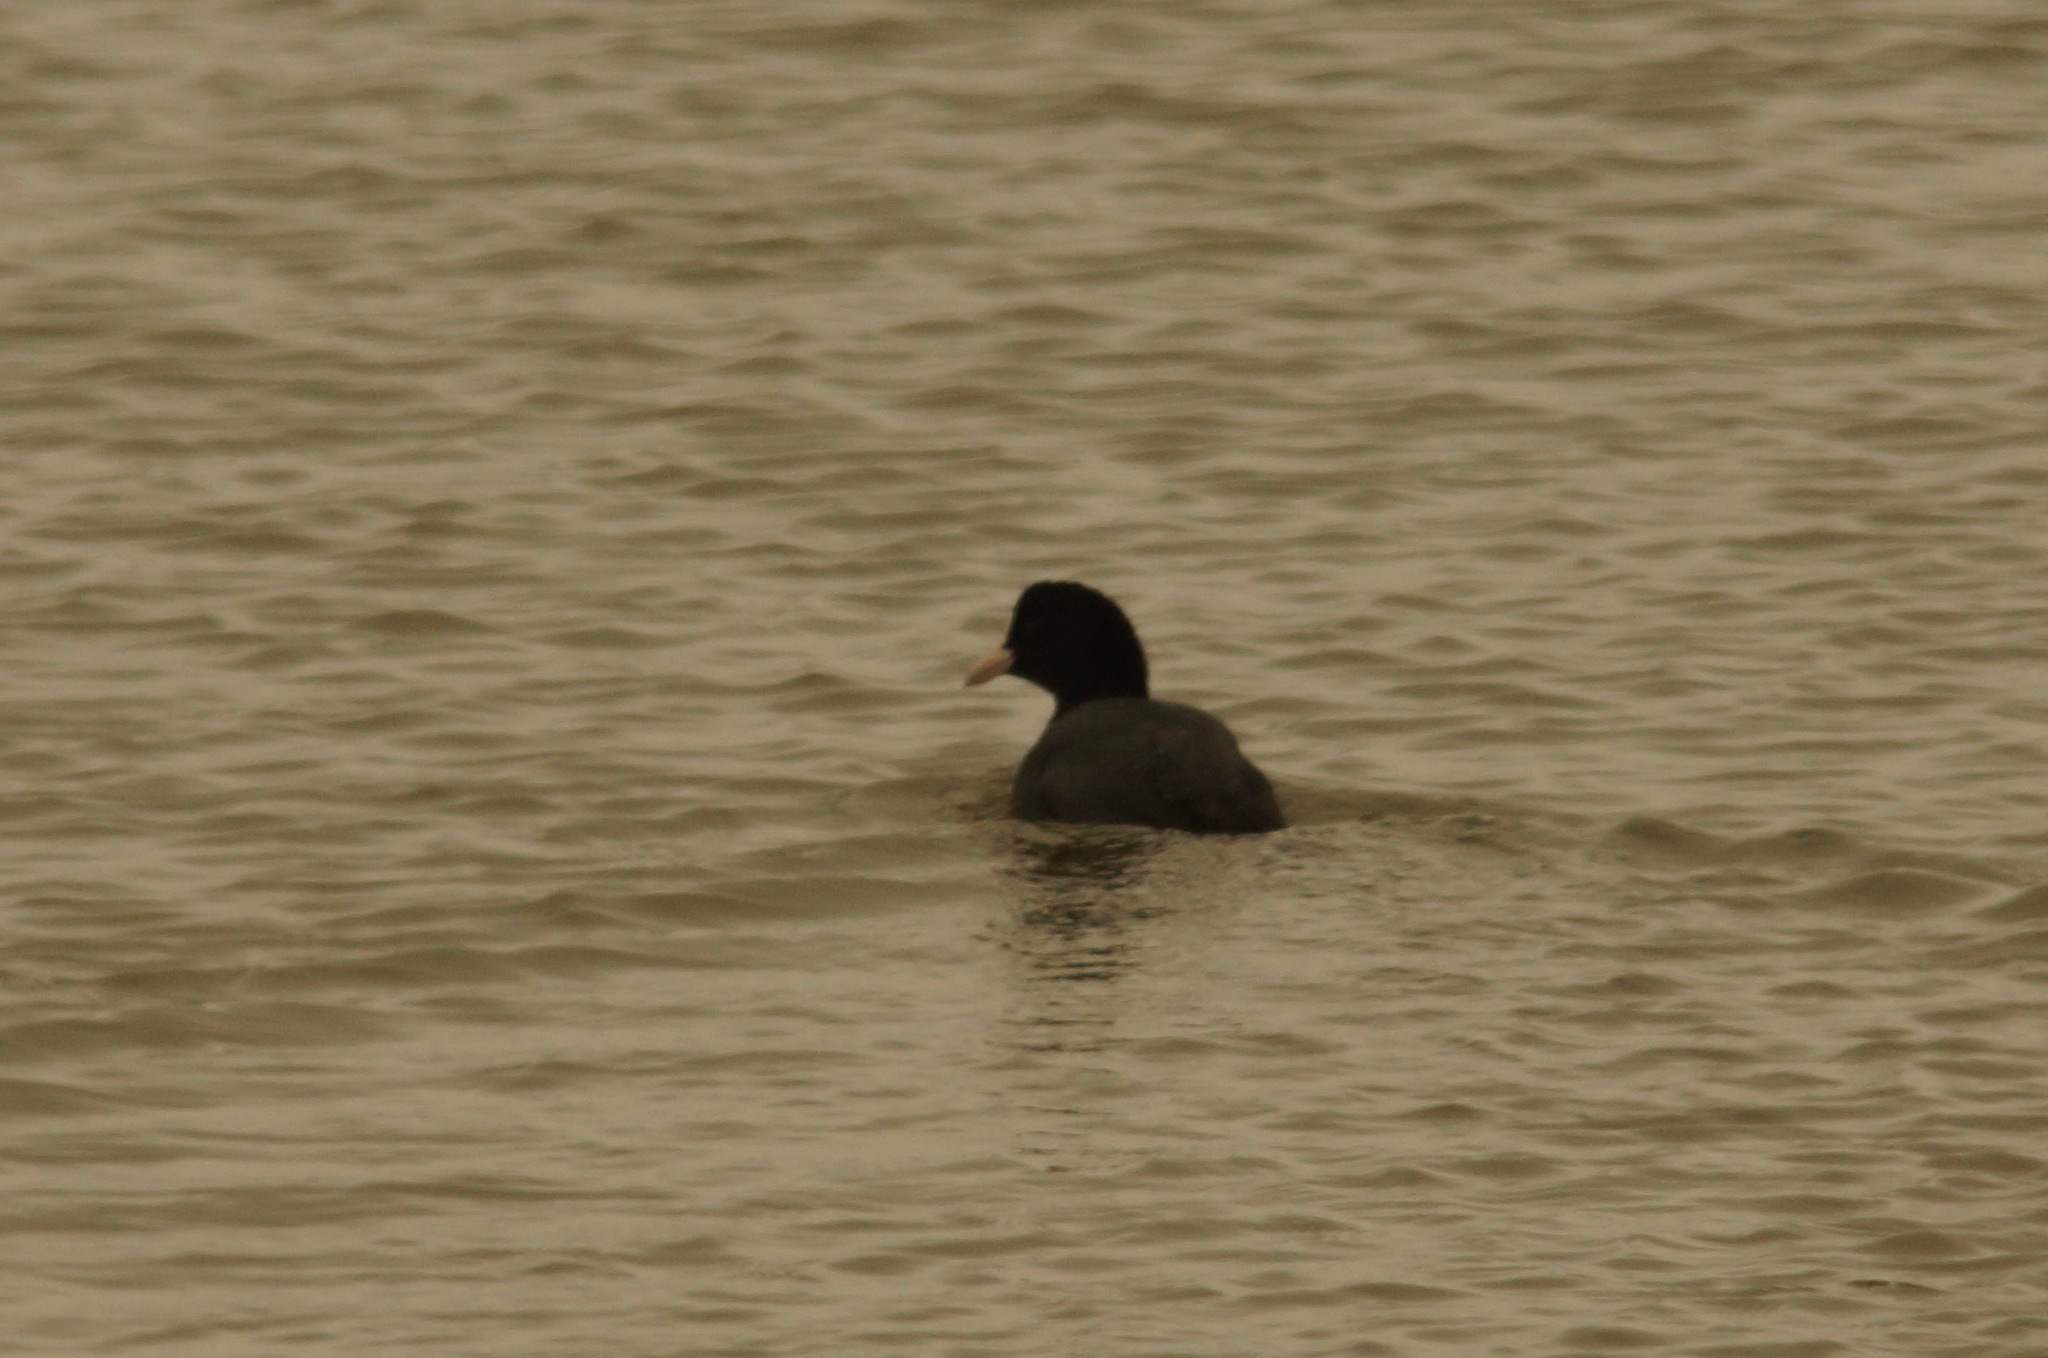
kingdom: Animalia
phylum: Chordata
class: Aves
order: Gruiformes
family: Rallidae
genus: Fulica
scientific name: Fulica atra
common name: Eurasian coot
